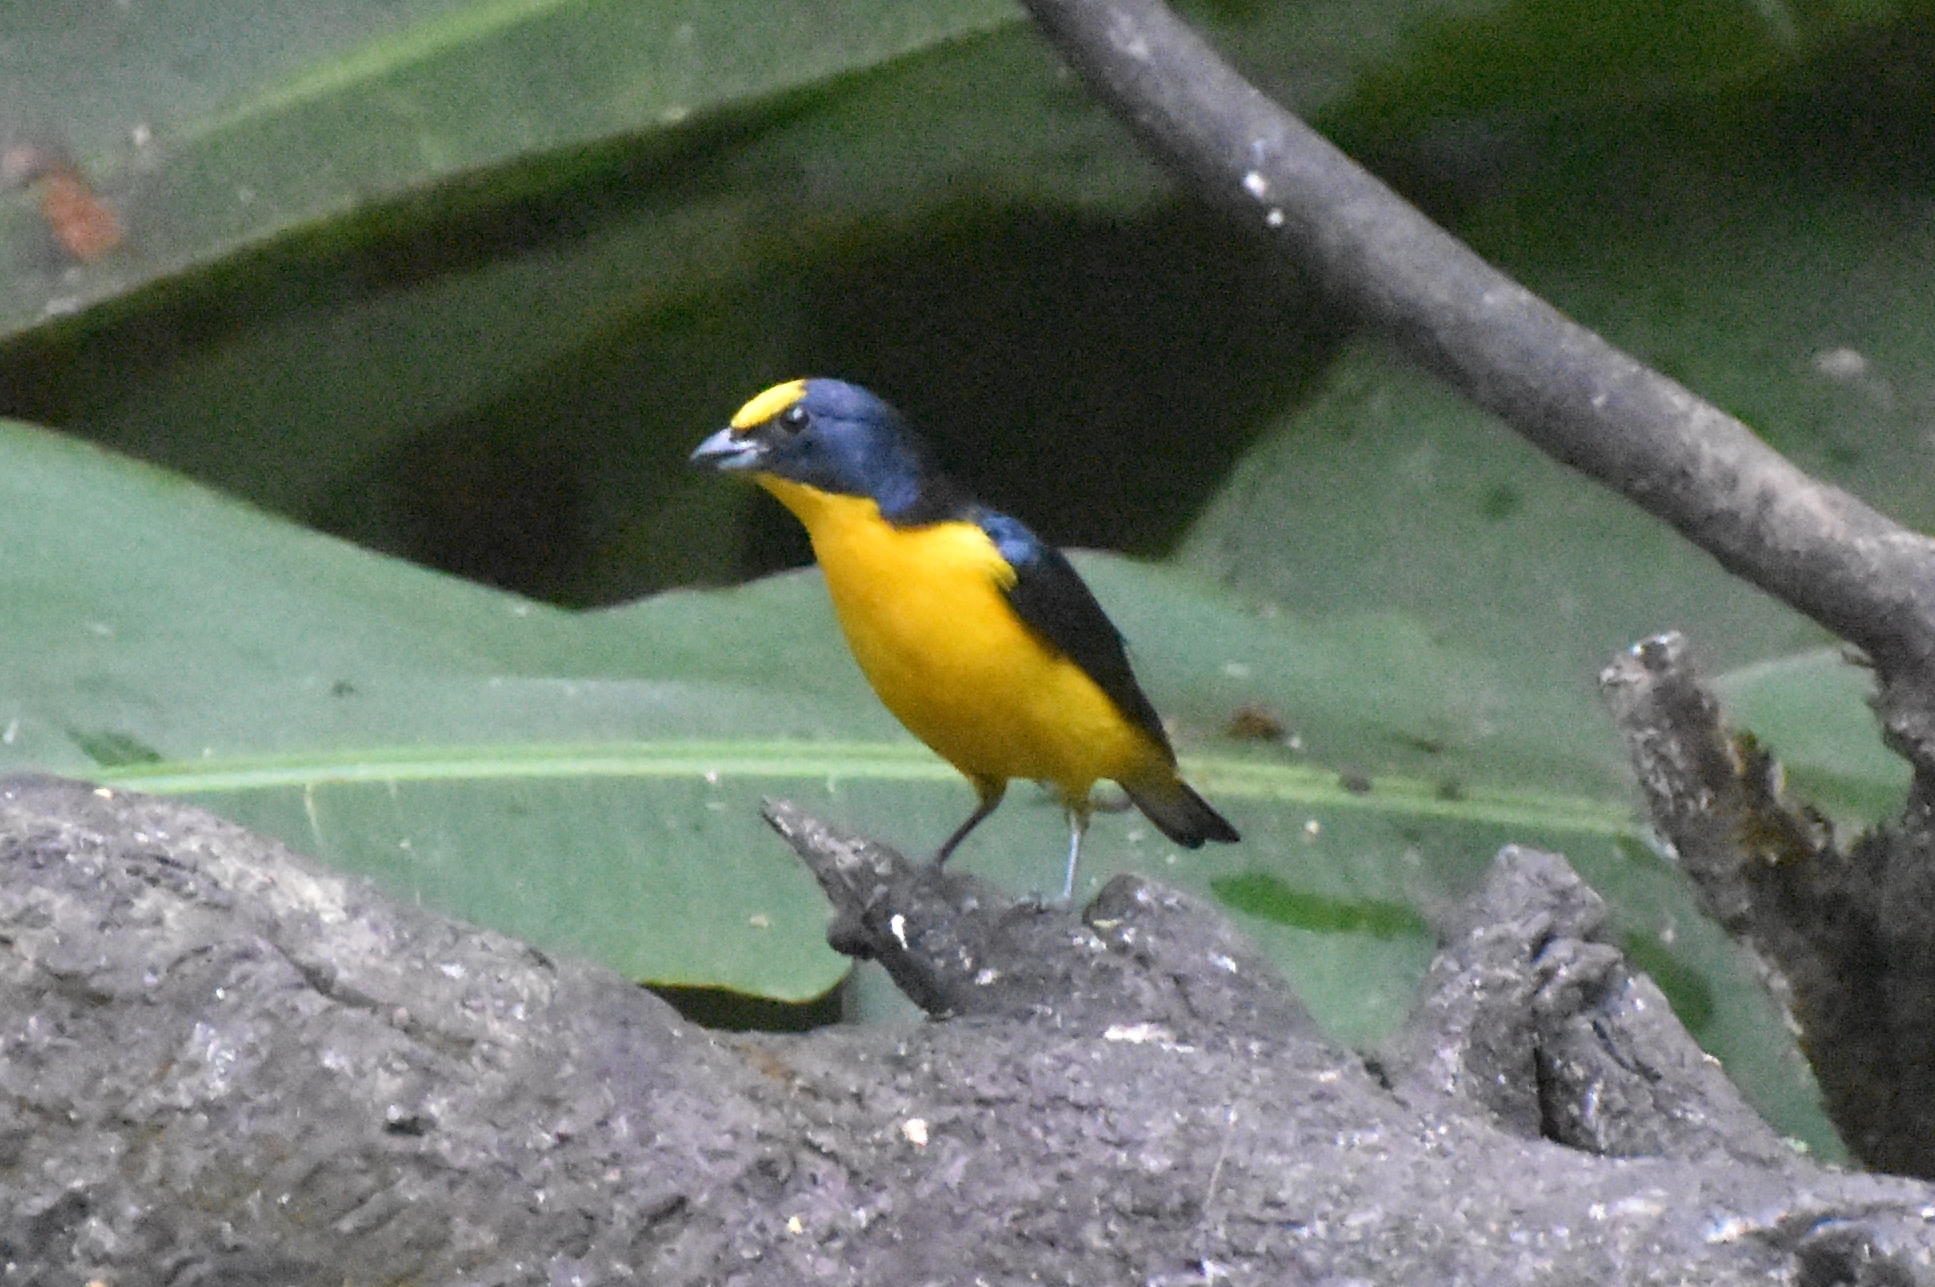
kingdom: Animalia
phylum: Chordata
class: Aves
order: Passeriformes
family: Fringillidae
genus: Euphonia
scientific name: Euphonia laniirostris
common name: Thick-billed euphonia
